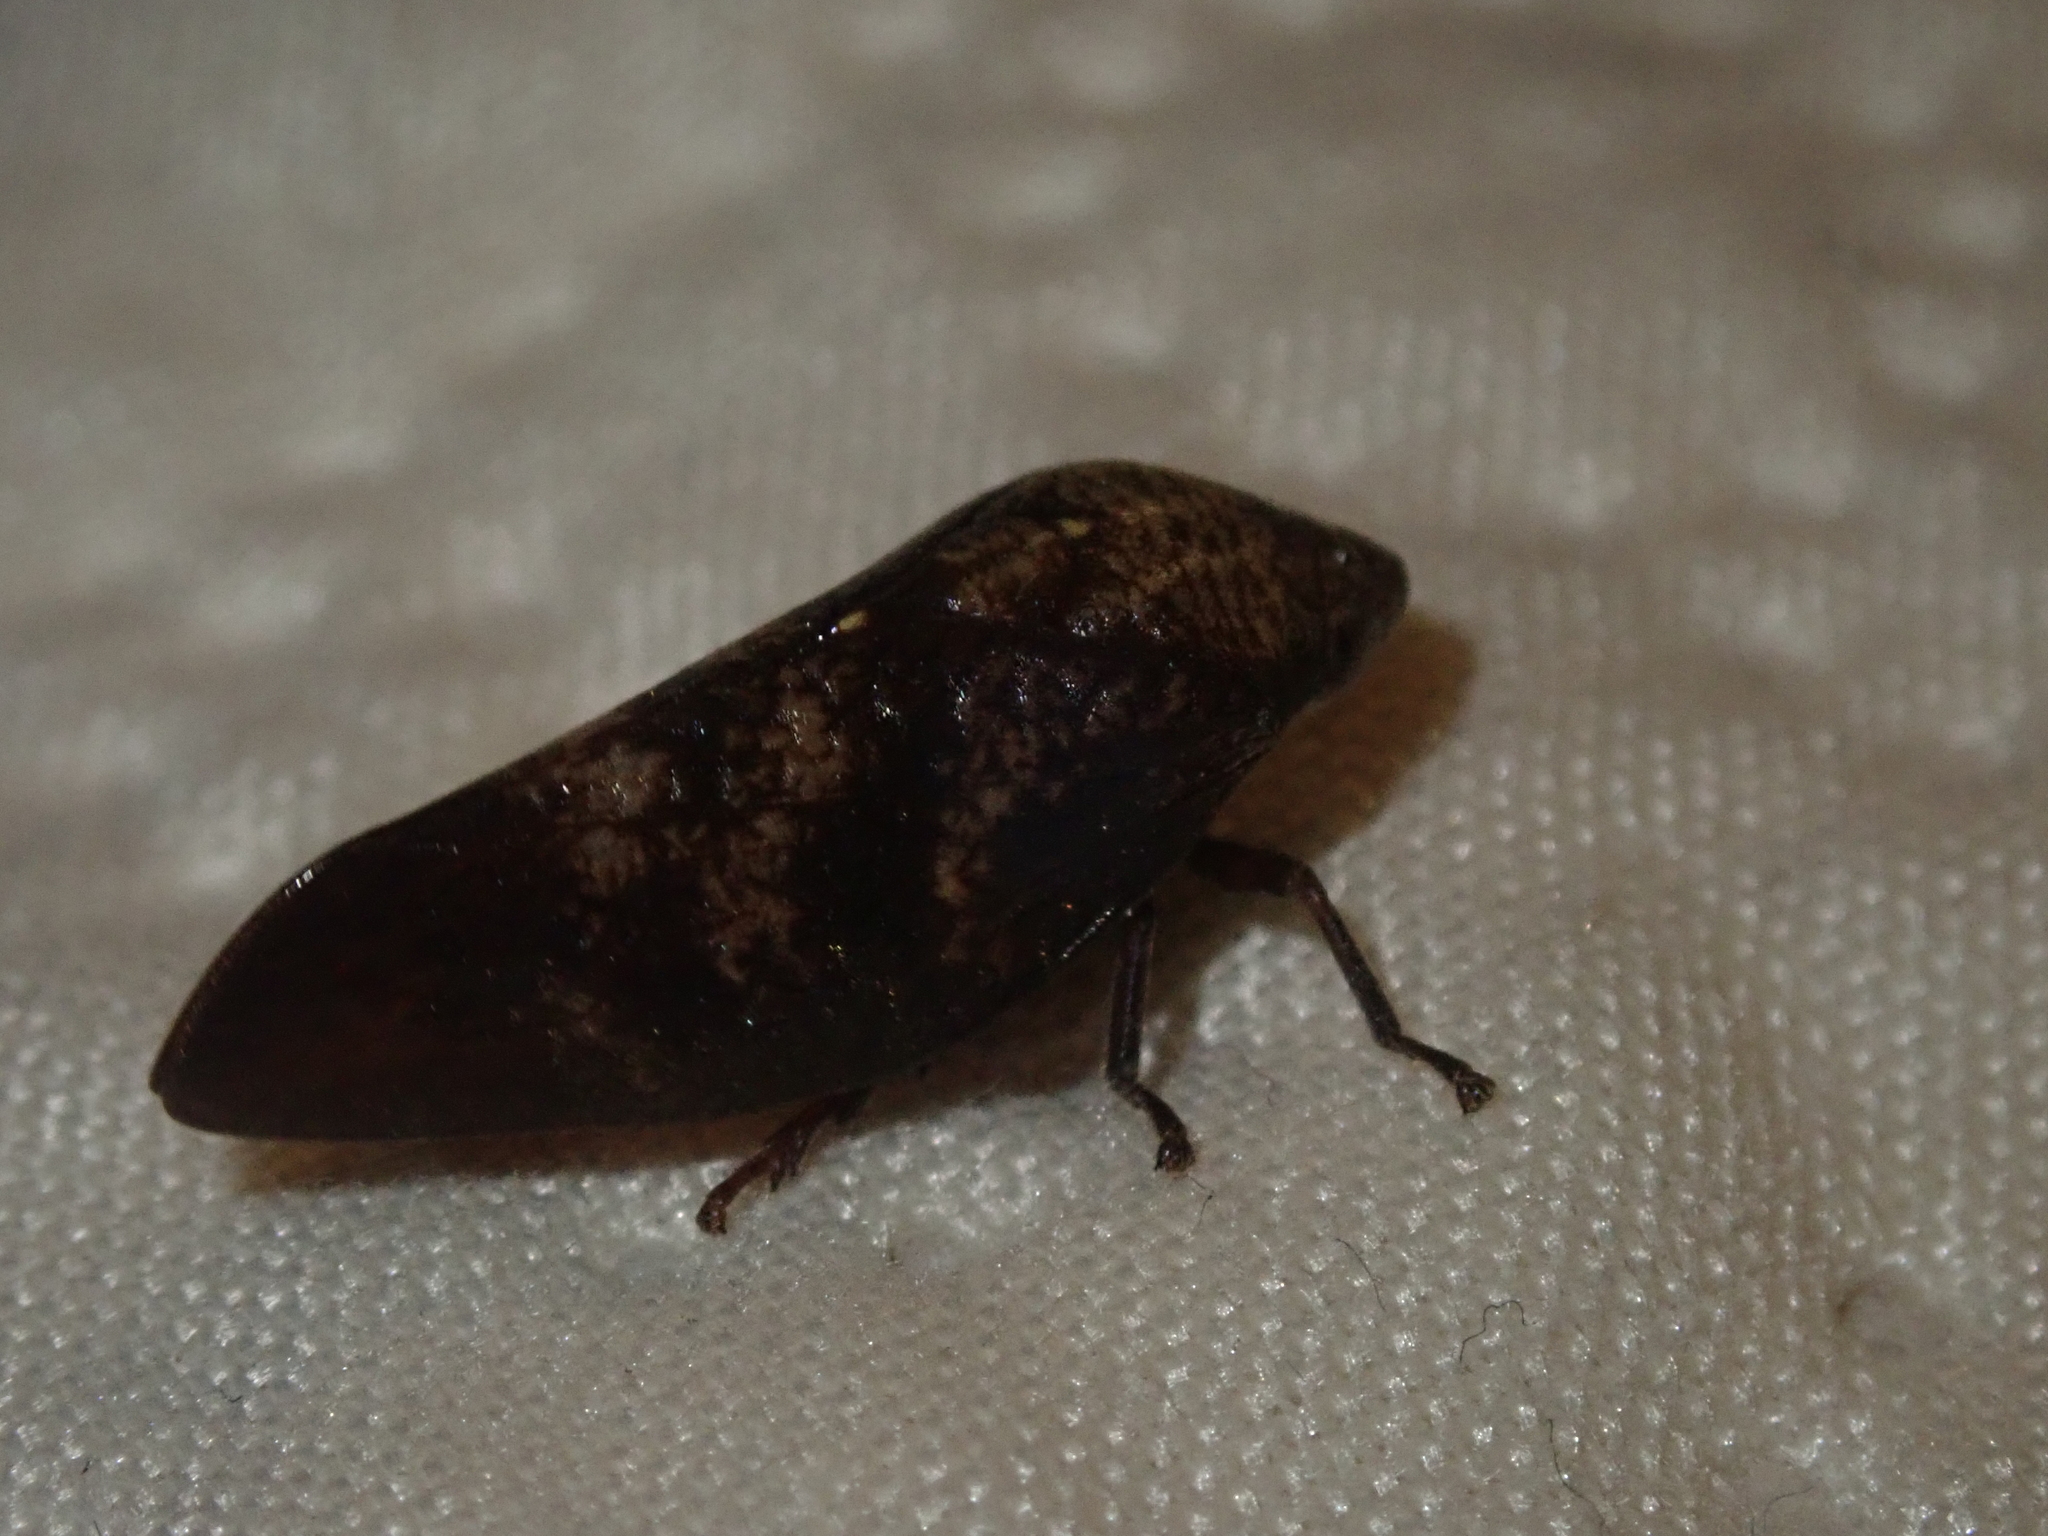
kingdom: Animalia
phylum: Arthropoda
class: Insecta
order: Hemiptera
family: Aphrophoridae
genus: Cephisus
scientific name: Cephisus siccifolius
